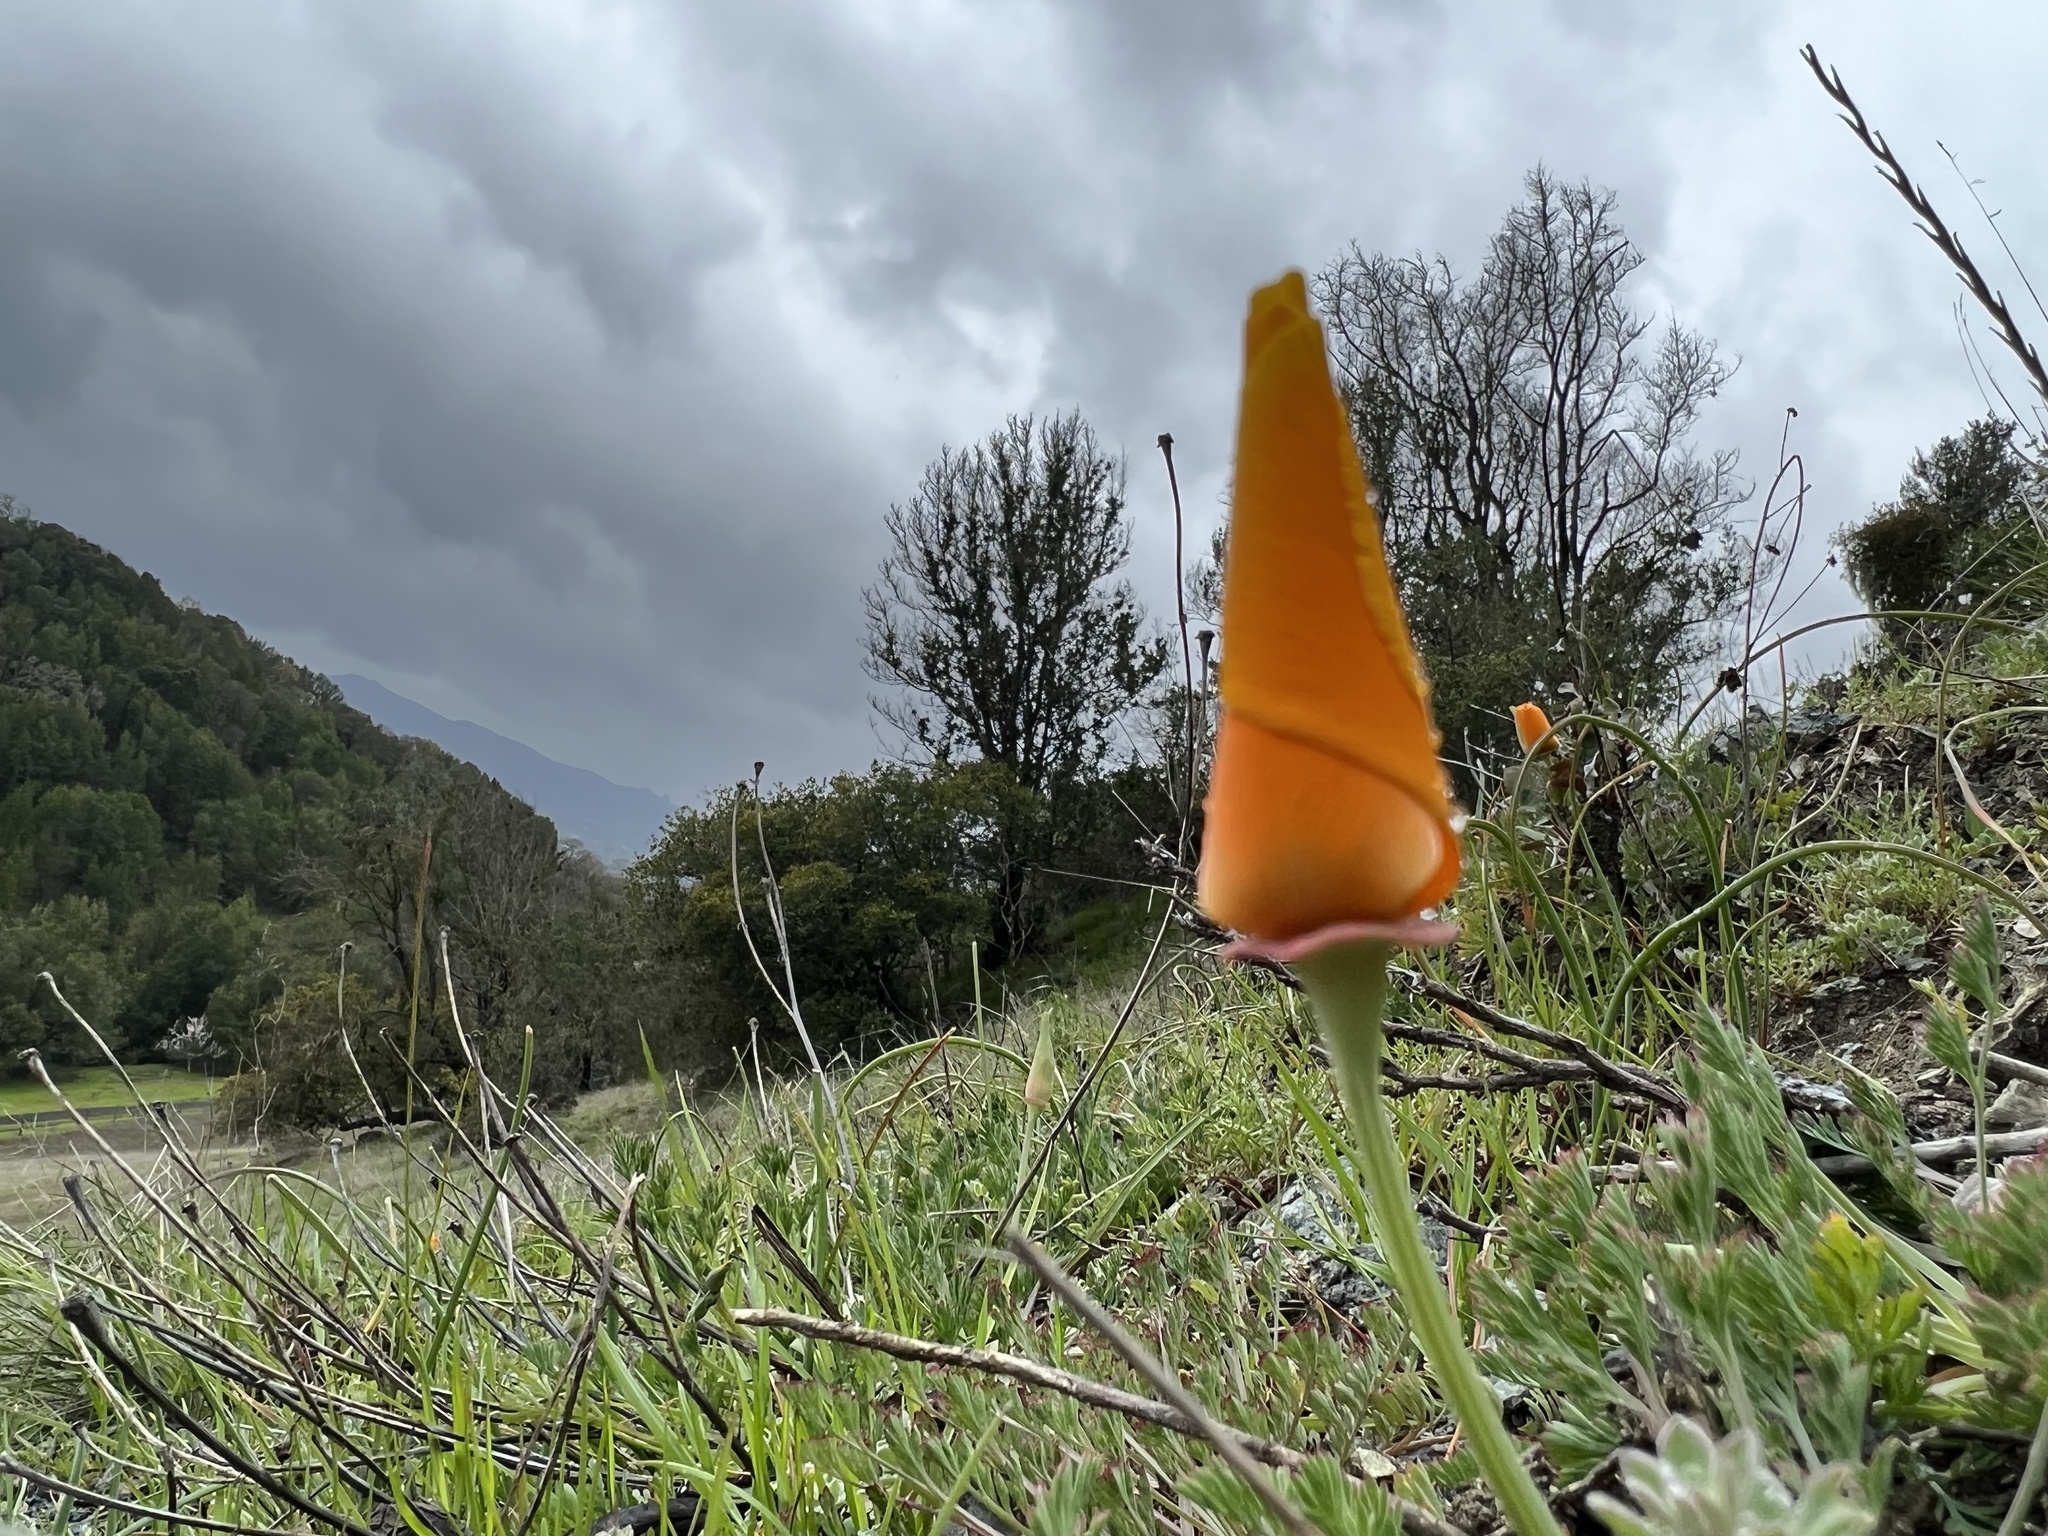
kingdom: Plantae
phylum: Tracheophyta
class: Magnoliopsida
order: Ranunculales
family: Papaveraceae
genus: Eschscholzia
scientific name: Eschscholzia californica
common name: California poppy
